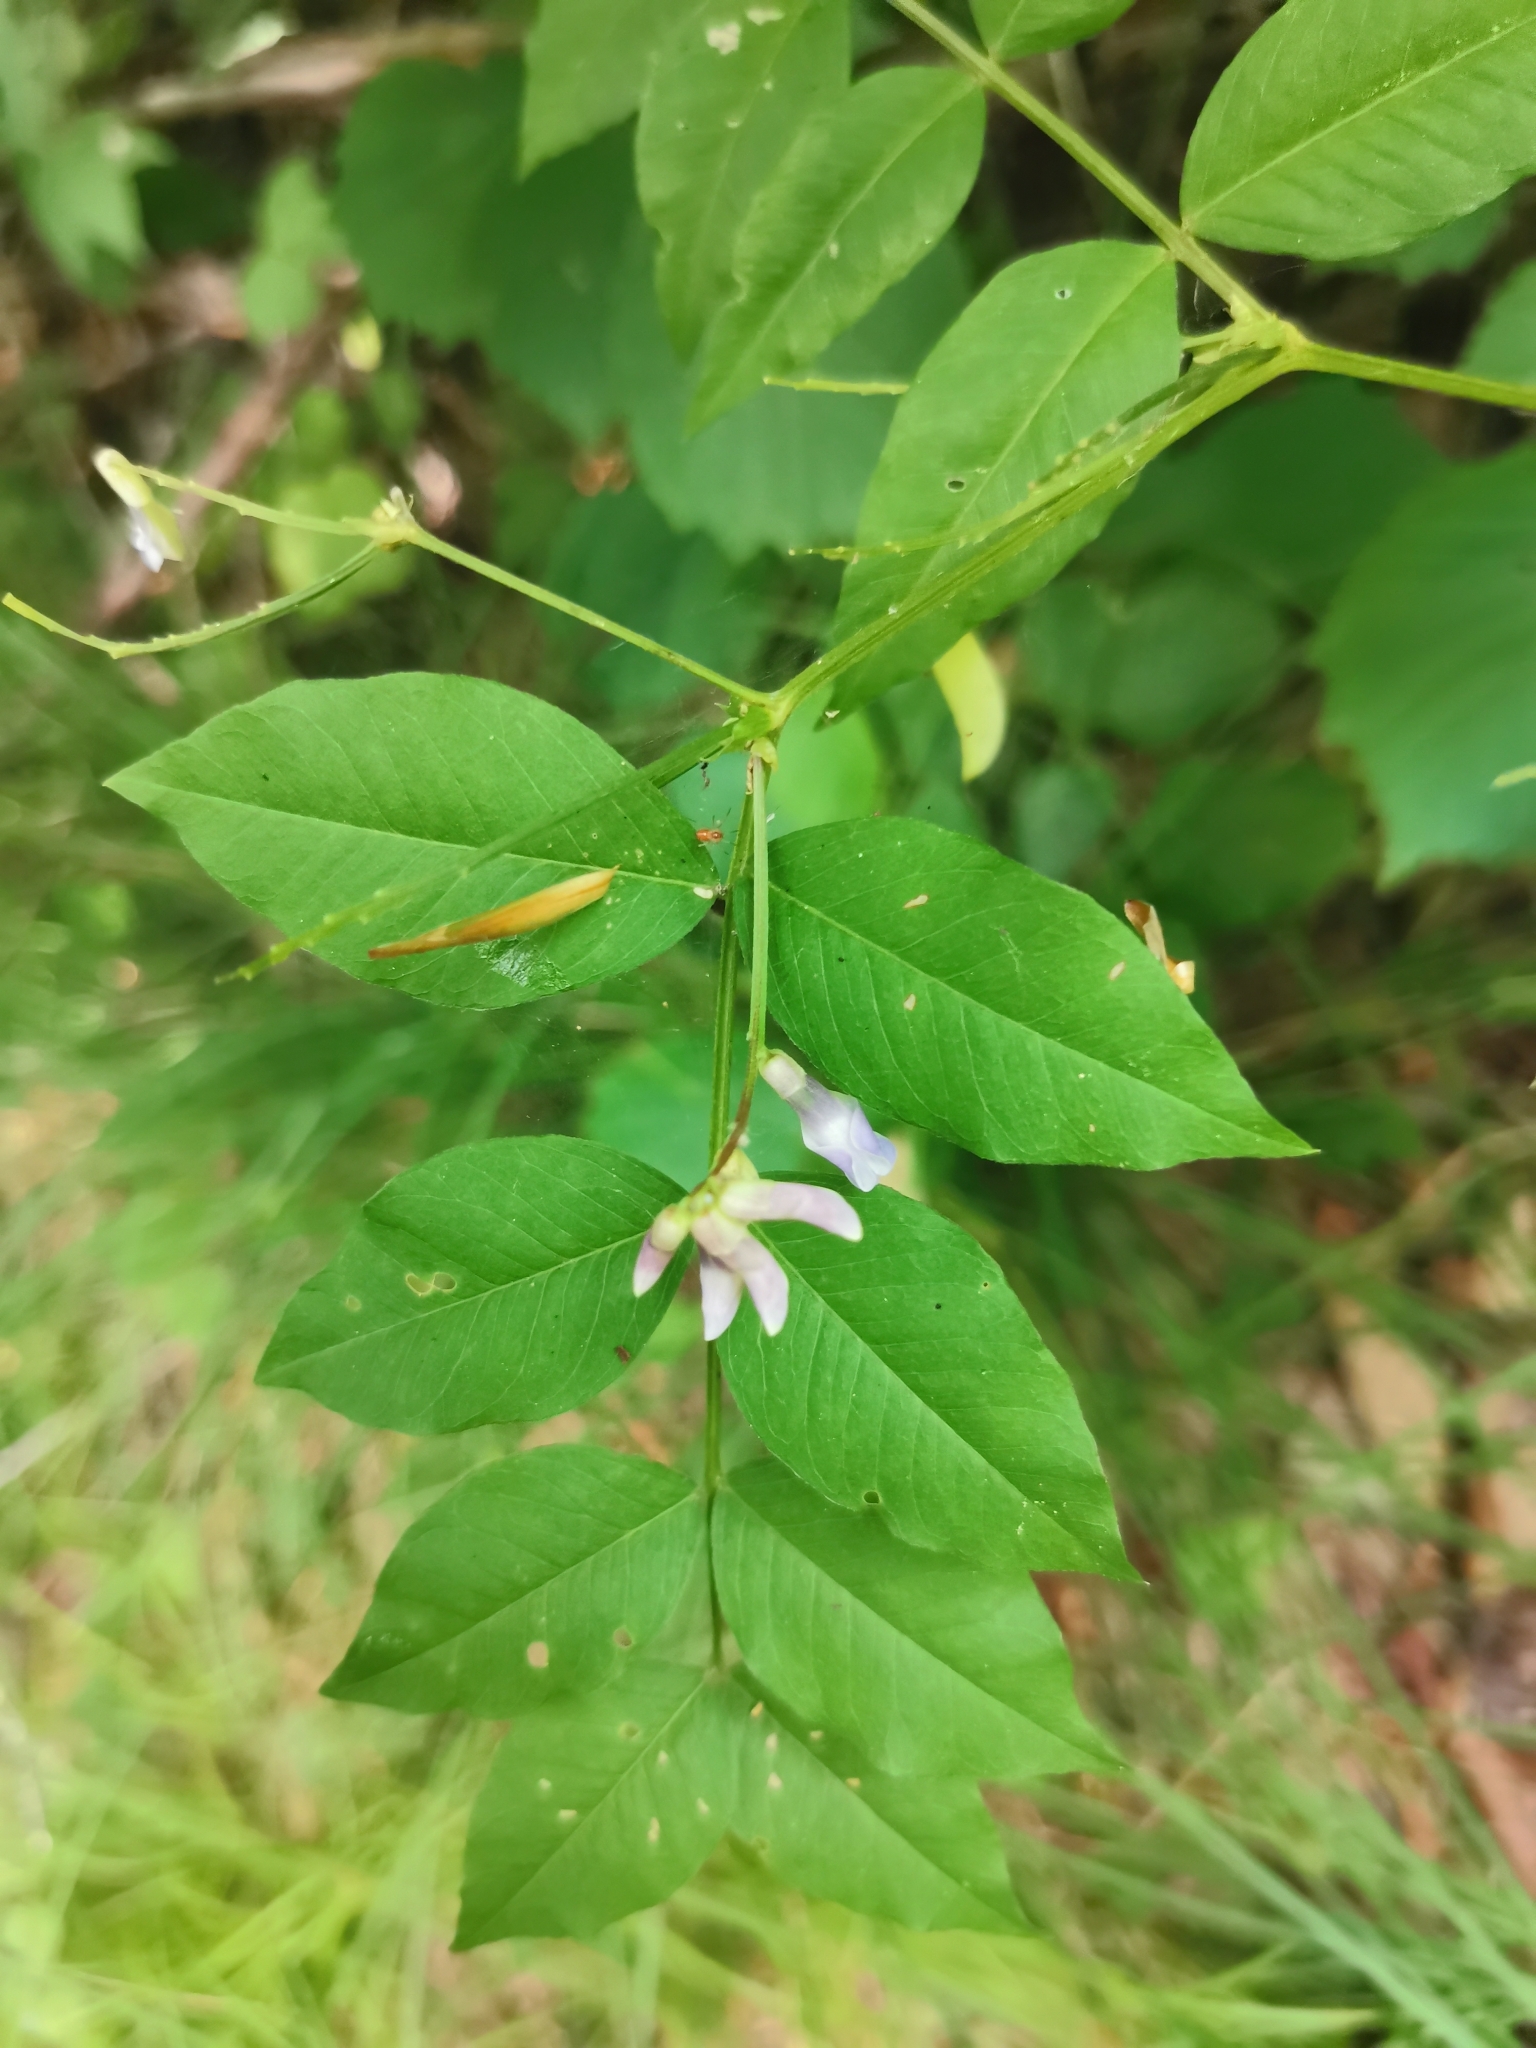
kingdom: Plantae
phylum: Tracheophyta
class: Magnoliopsida
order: Fabales
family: Fabaceae
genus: Vicia
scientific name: Vicia ramuliflora
